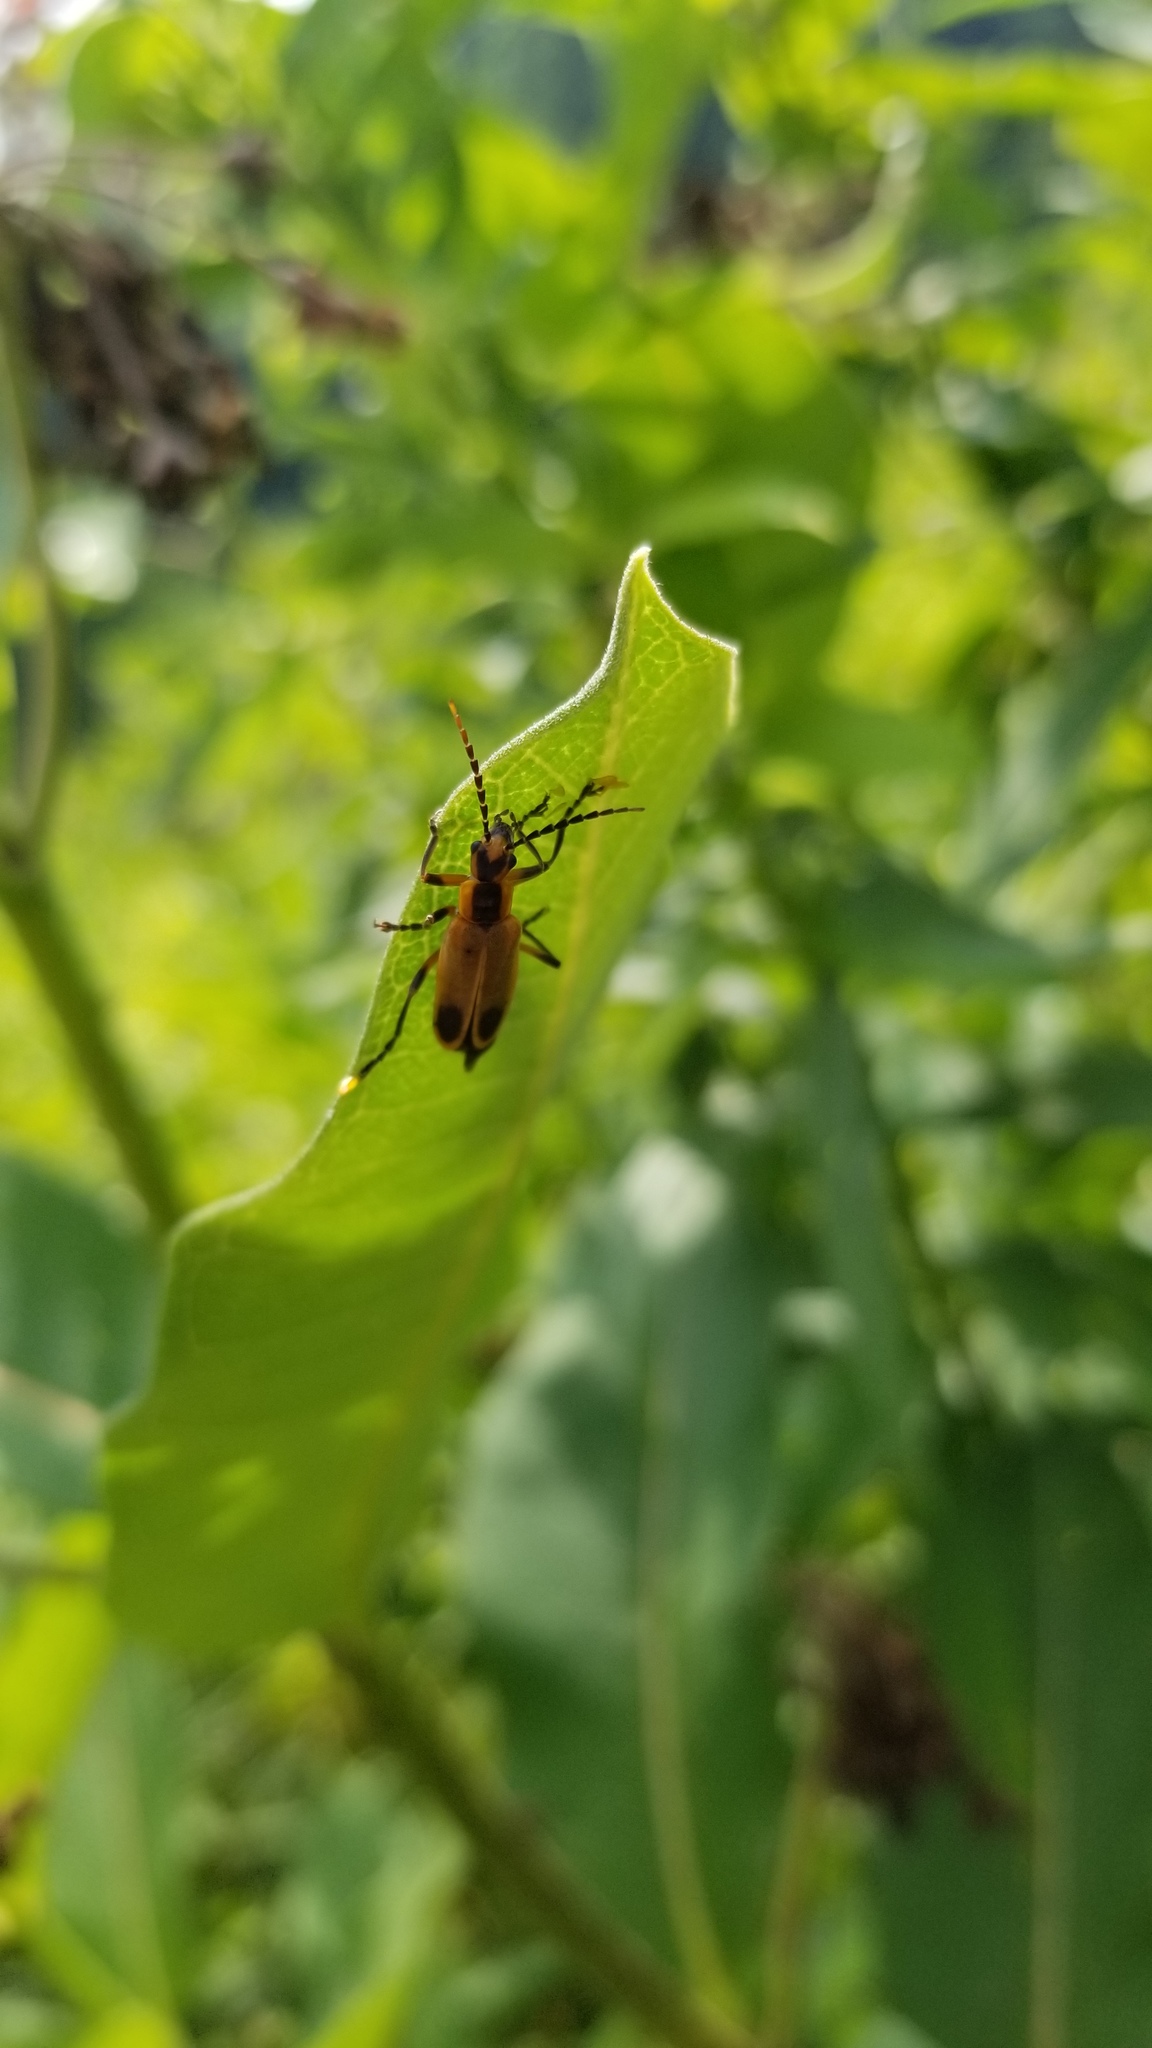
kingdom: Animalia
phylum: Arthropoda
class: Insecta
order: Coleoptera
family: Cantharidae
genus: Chauliognathus
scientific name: Chauliognathus marginatus
